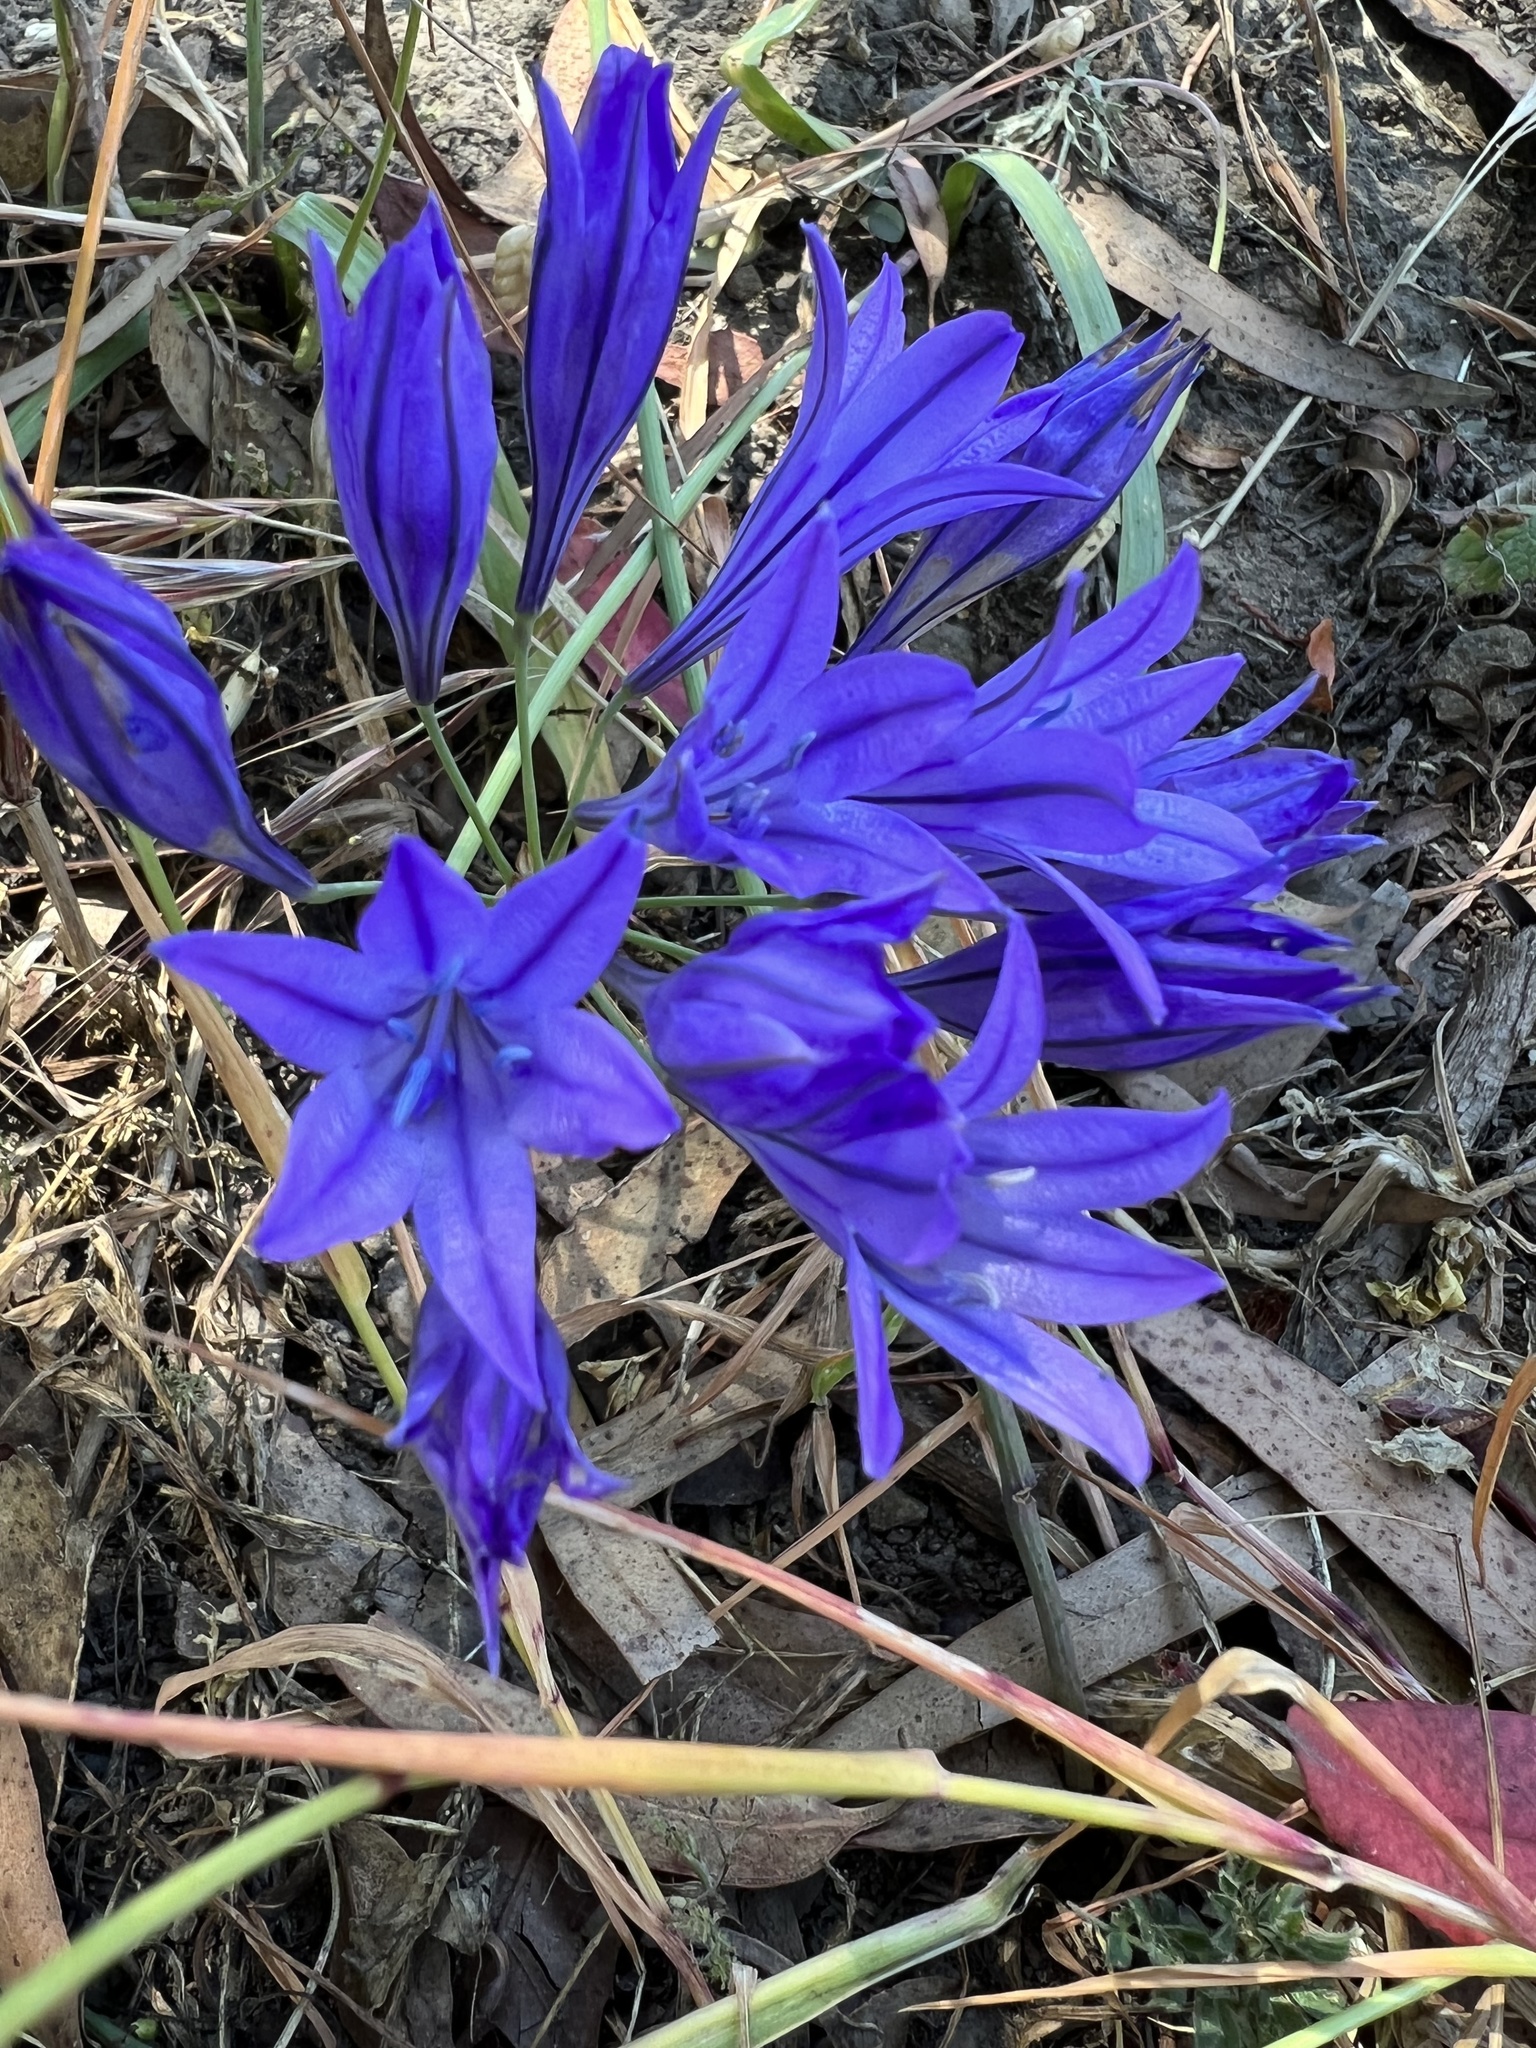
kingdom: Plantae
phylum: Tracheophyta
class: Liliopsida
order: Asparagales
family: Asparagaceae
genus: Triteleia
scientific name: Triteleia laxa
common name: Triplet-lily
